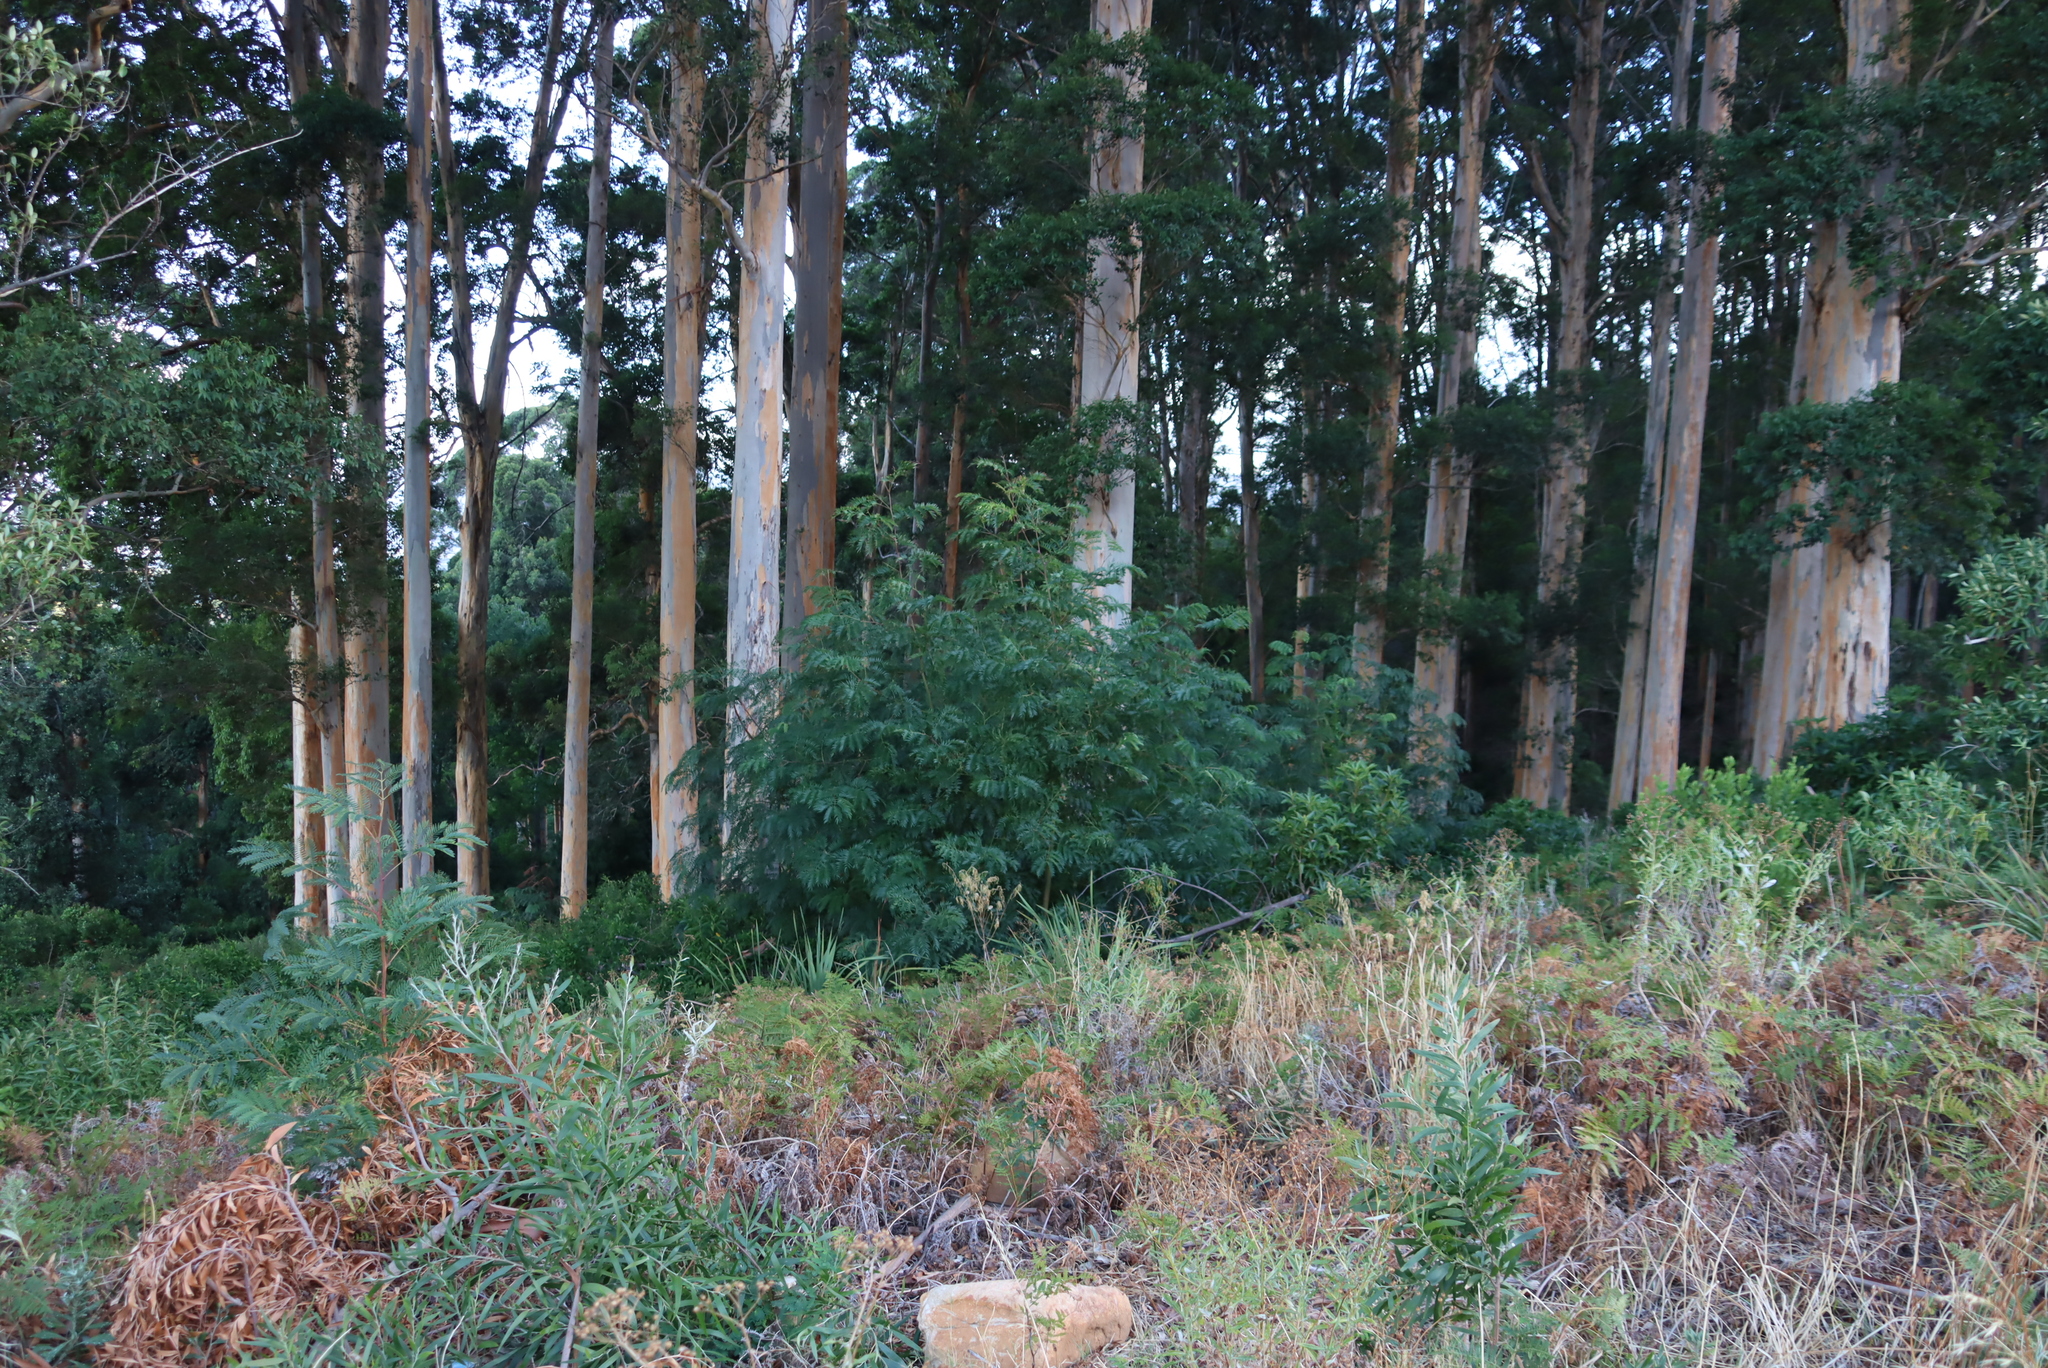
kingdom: Plantae
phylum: Tracheophyta
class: Magnoliopsida
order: Fabales
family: Fabaceae
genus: Acacia
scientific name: Acacia elata
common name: Cedar wattle
